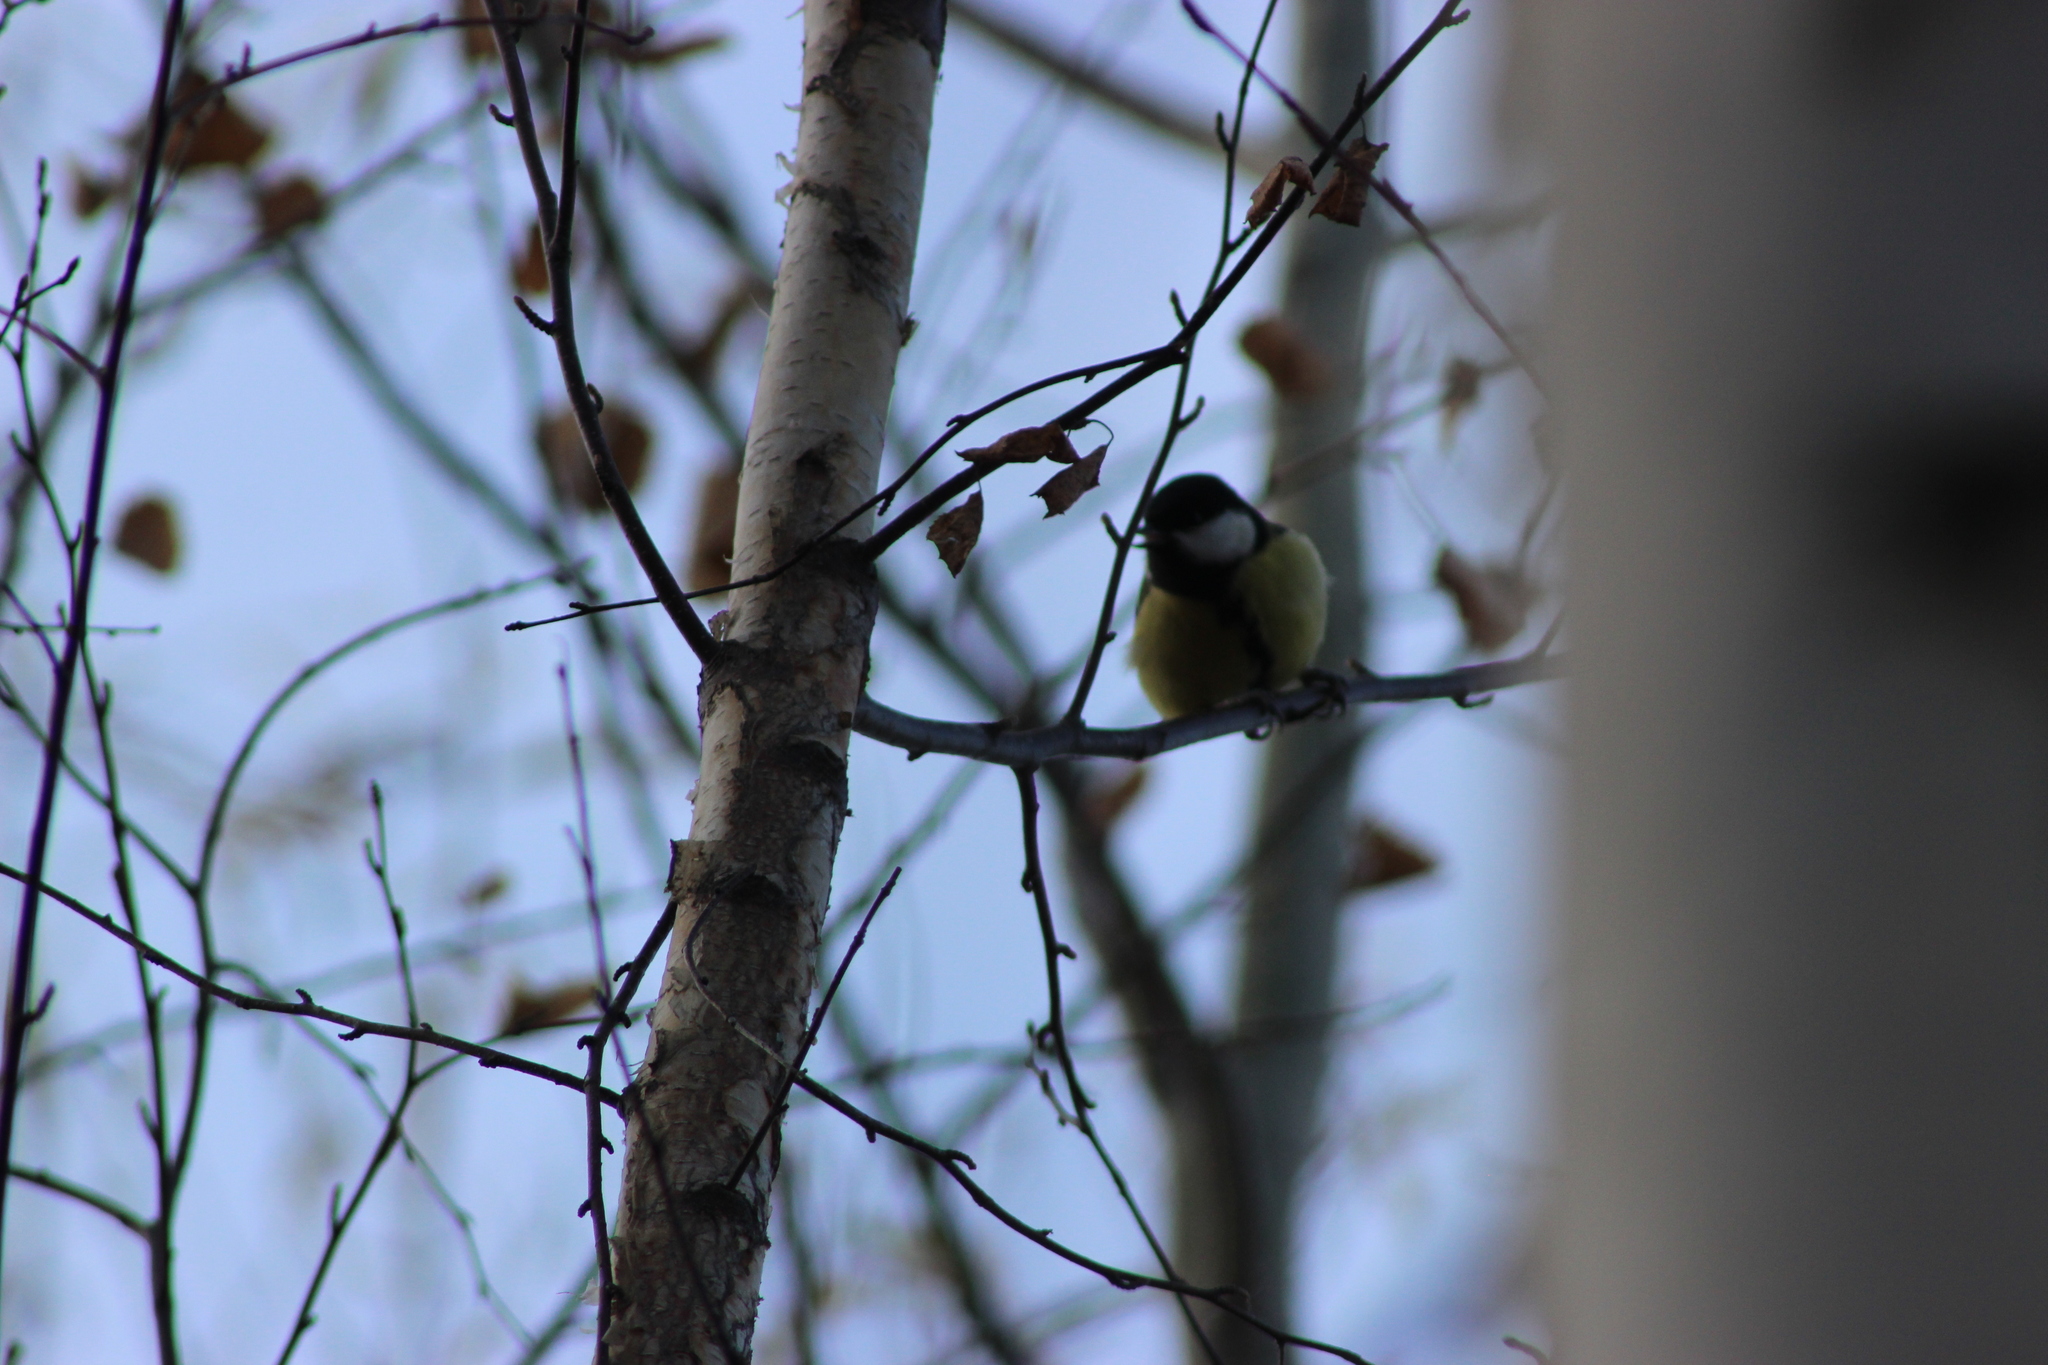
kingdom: Animalia
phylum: Chordata
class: Aves
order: Passeriformes
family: Paridae
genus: Parus
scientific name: Parus major
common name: Great tit
